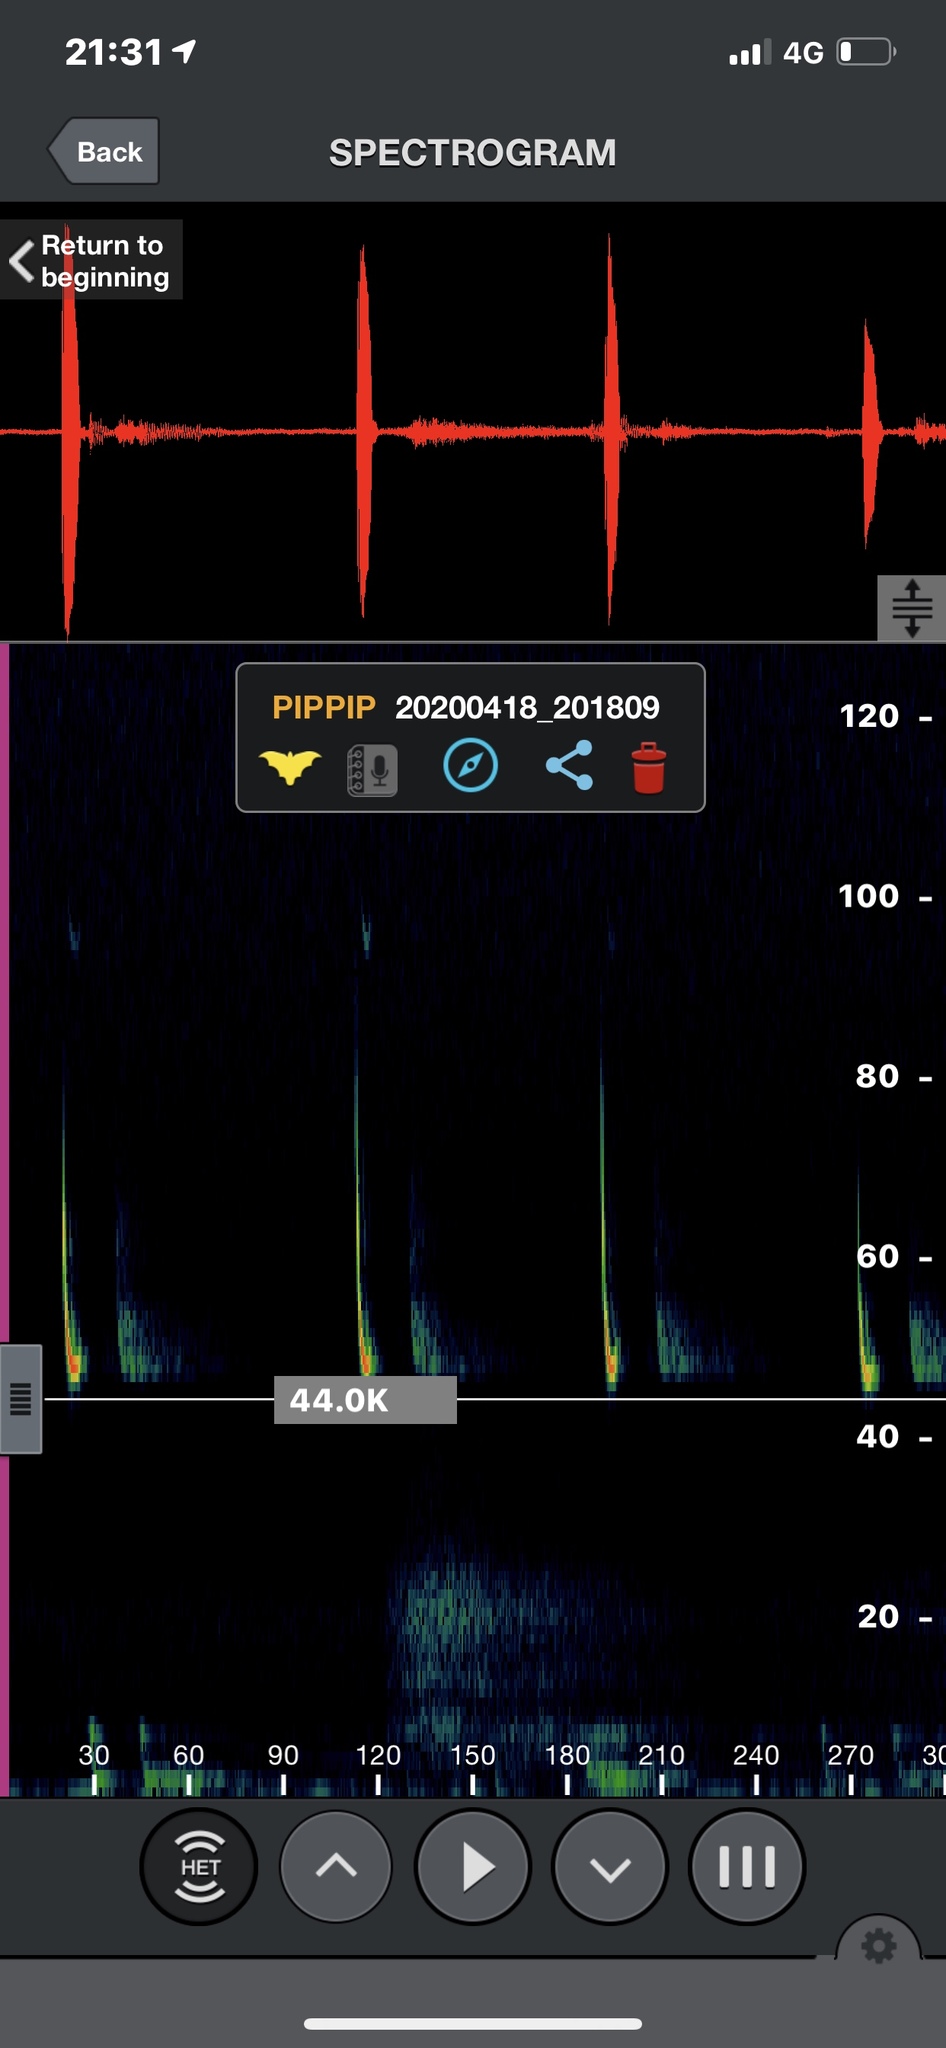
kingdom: Animalia
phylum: Chordata
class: Mammalia
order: Chiroptera
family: Vespertilionidae
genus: Pipistrellus
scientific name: Pipistrellus pipistrellus
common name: Common pipistrelle
